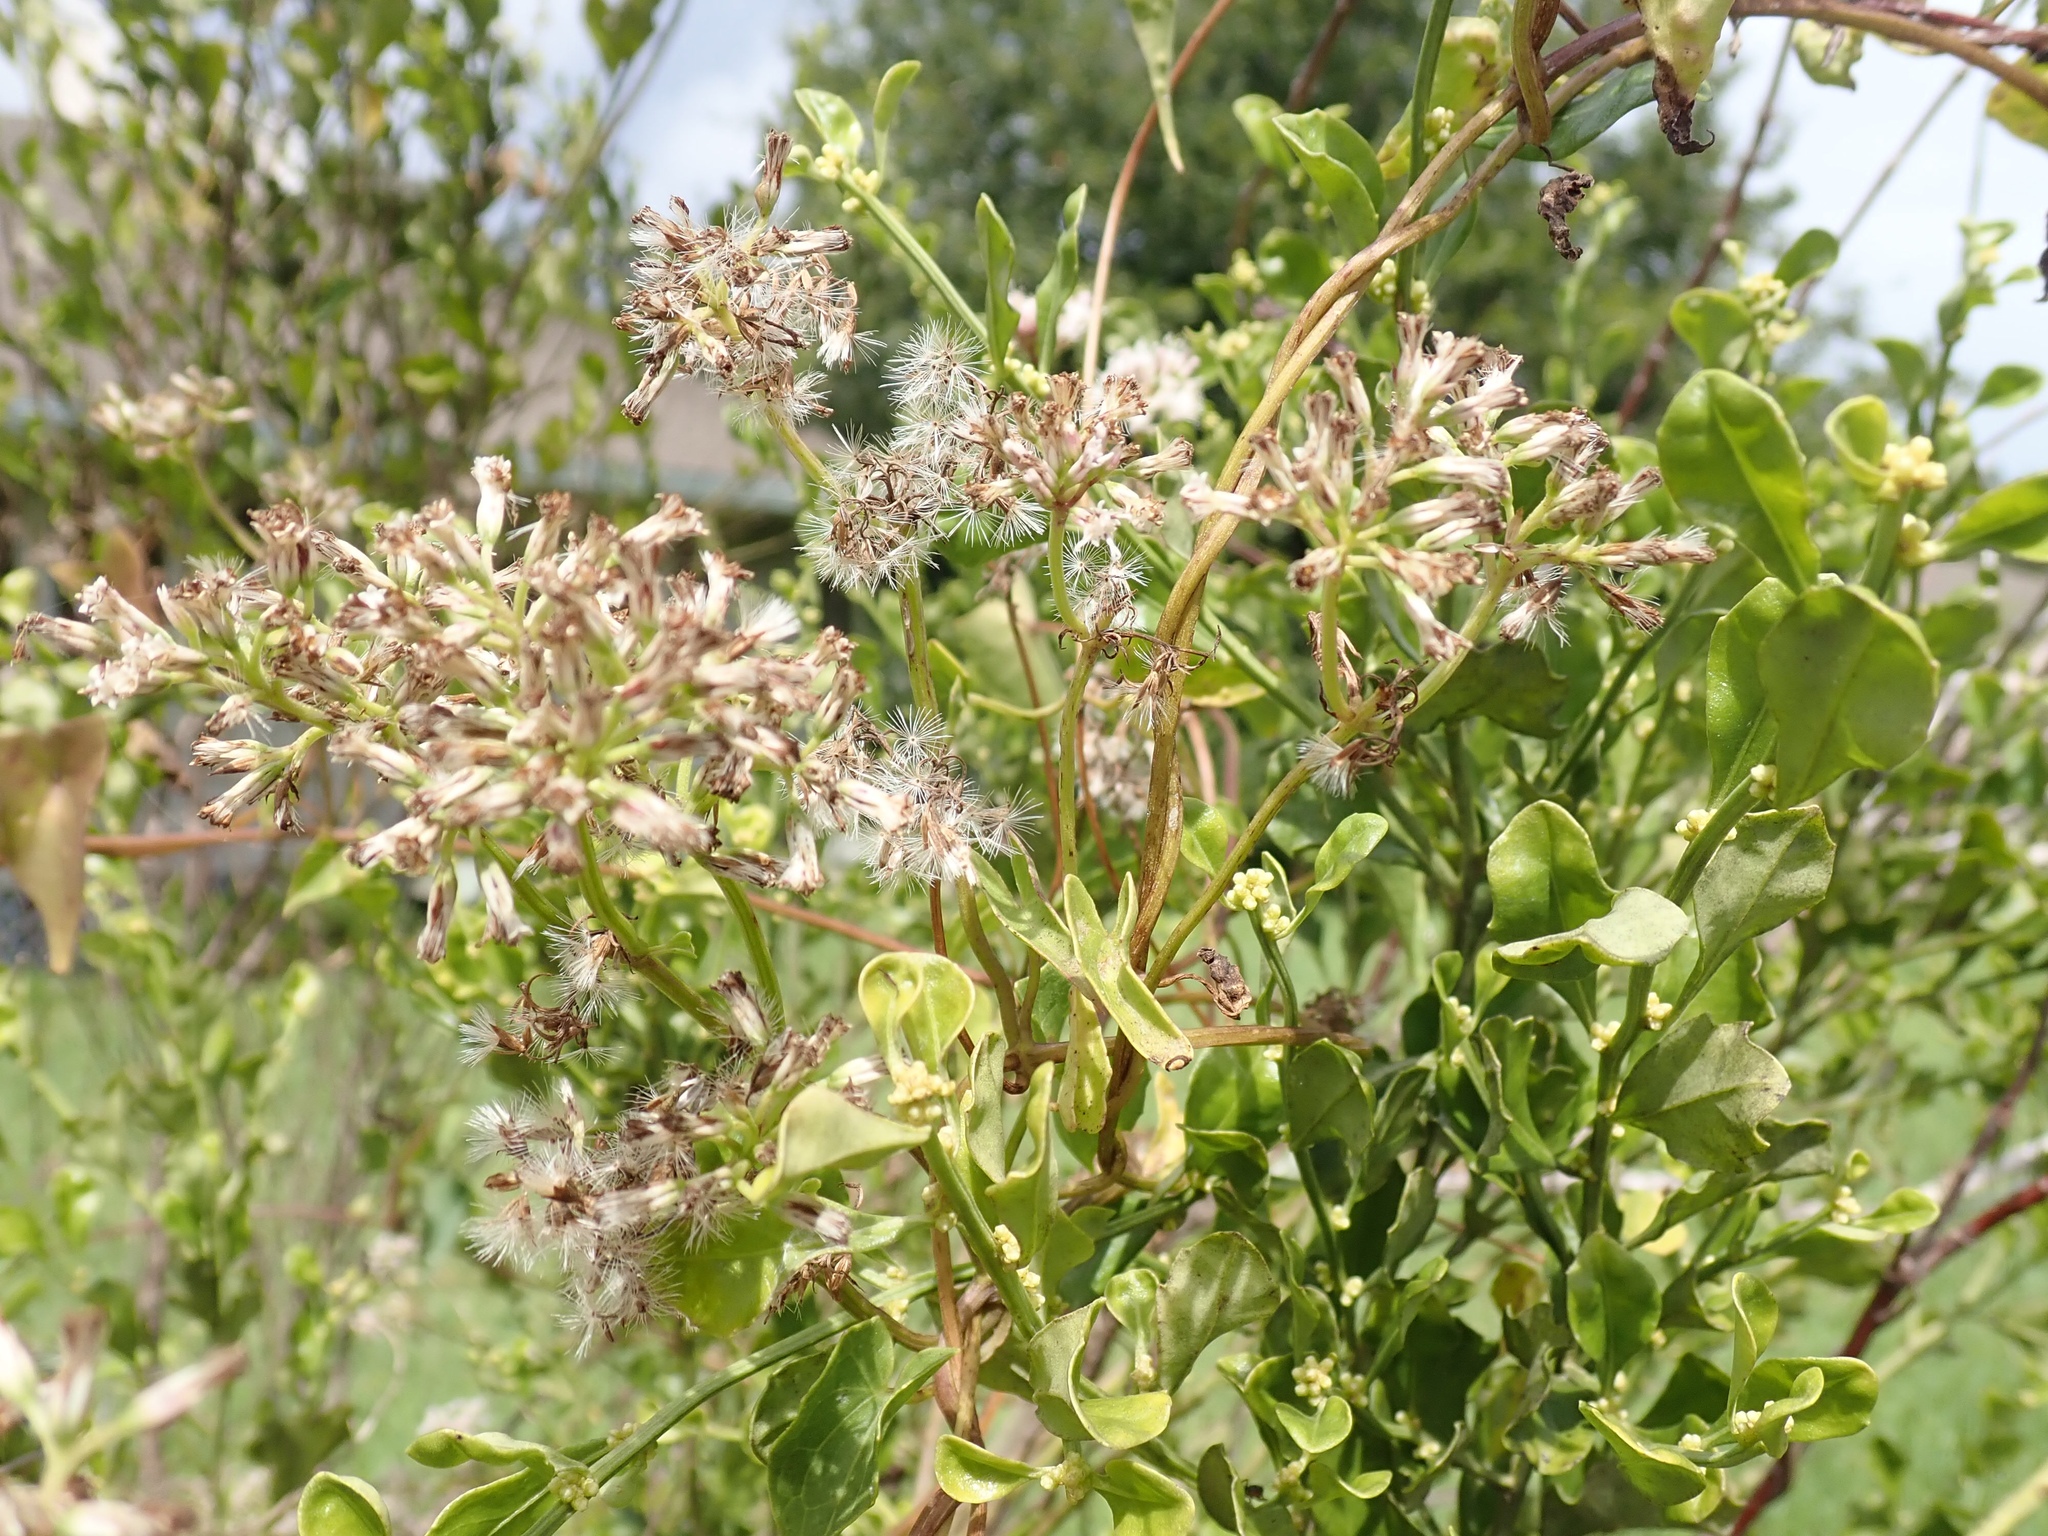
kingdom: Plantae
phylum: Tracheophyta
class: Magnoliopsida
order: Asterales
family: Asteraceae
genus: Mikania
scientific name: Mikania scandens
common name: Climbing hempvine
